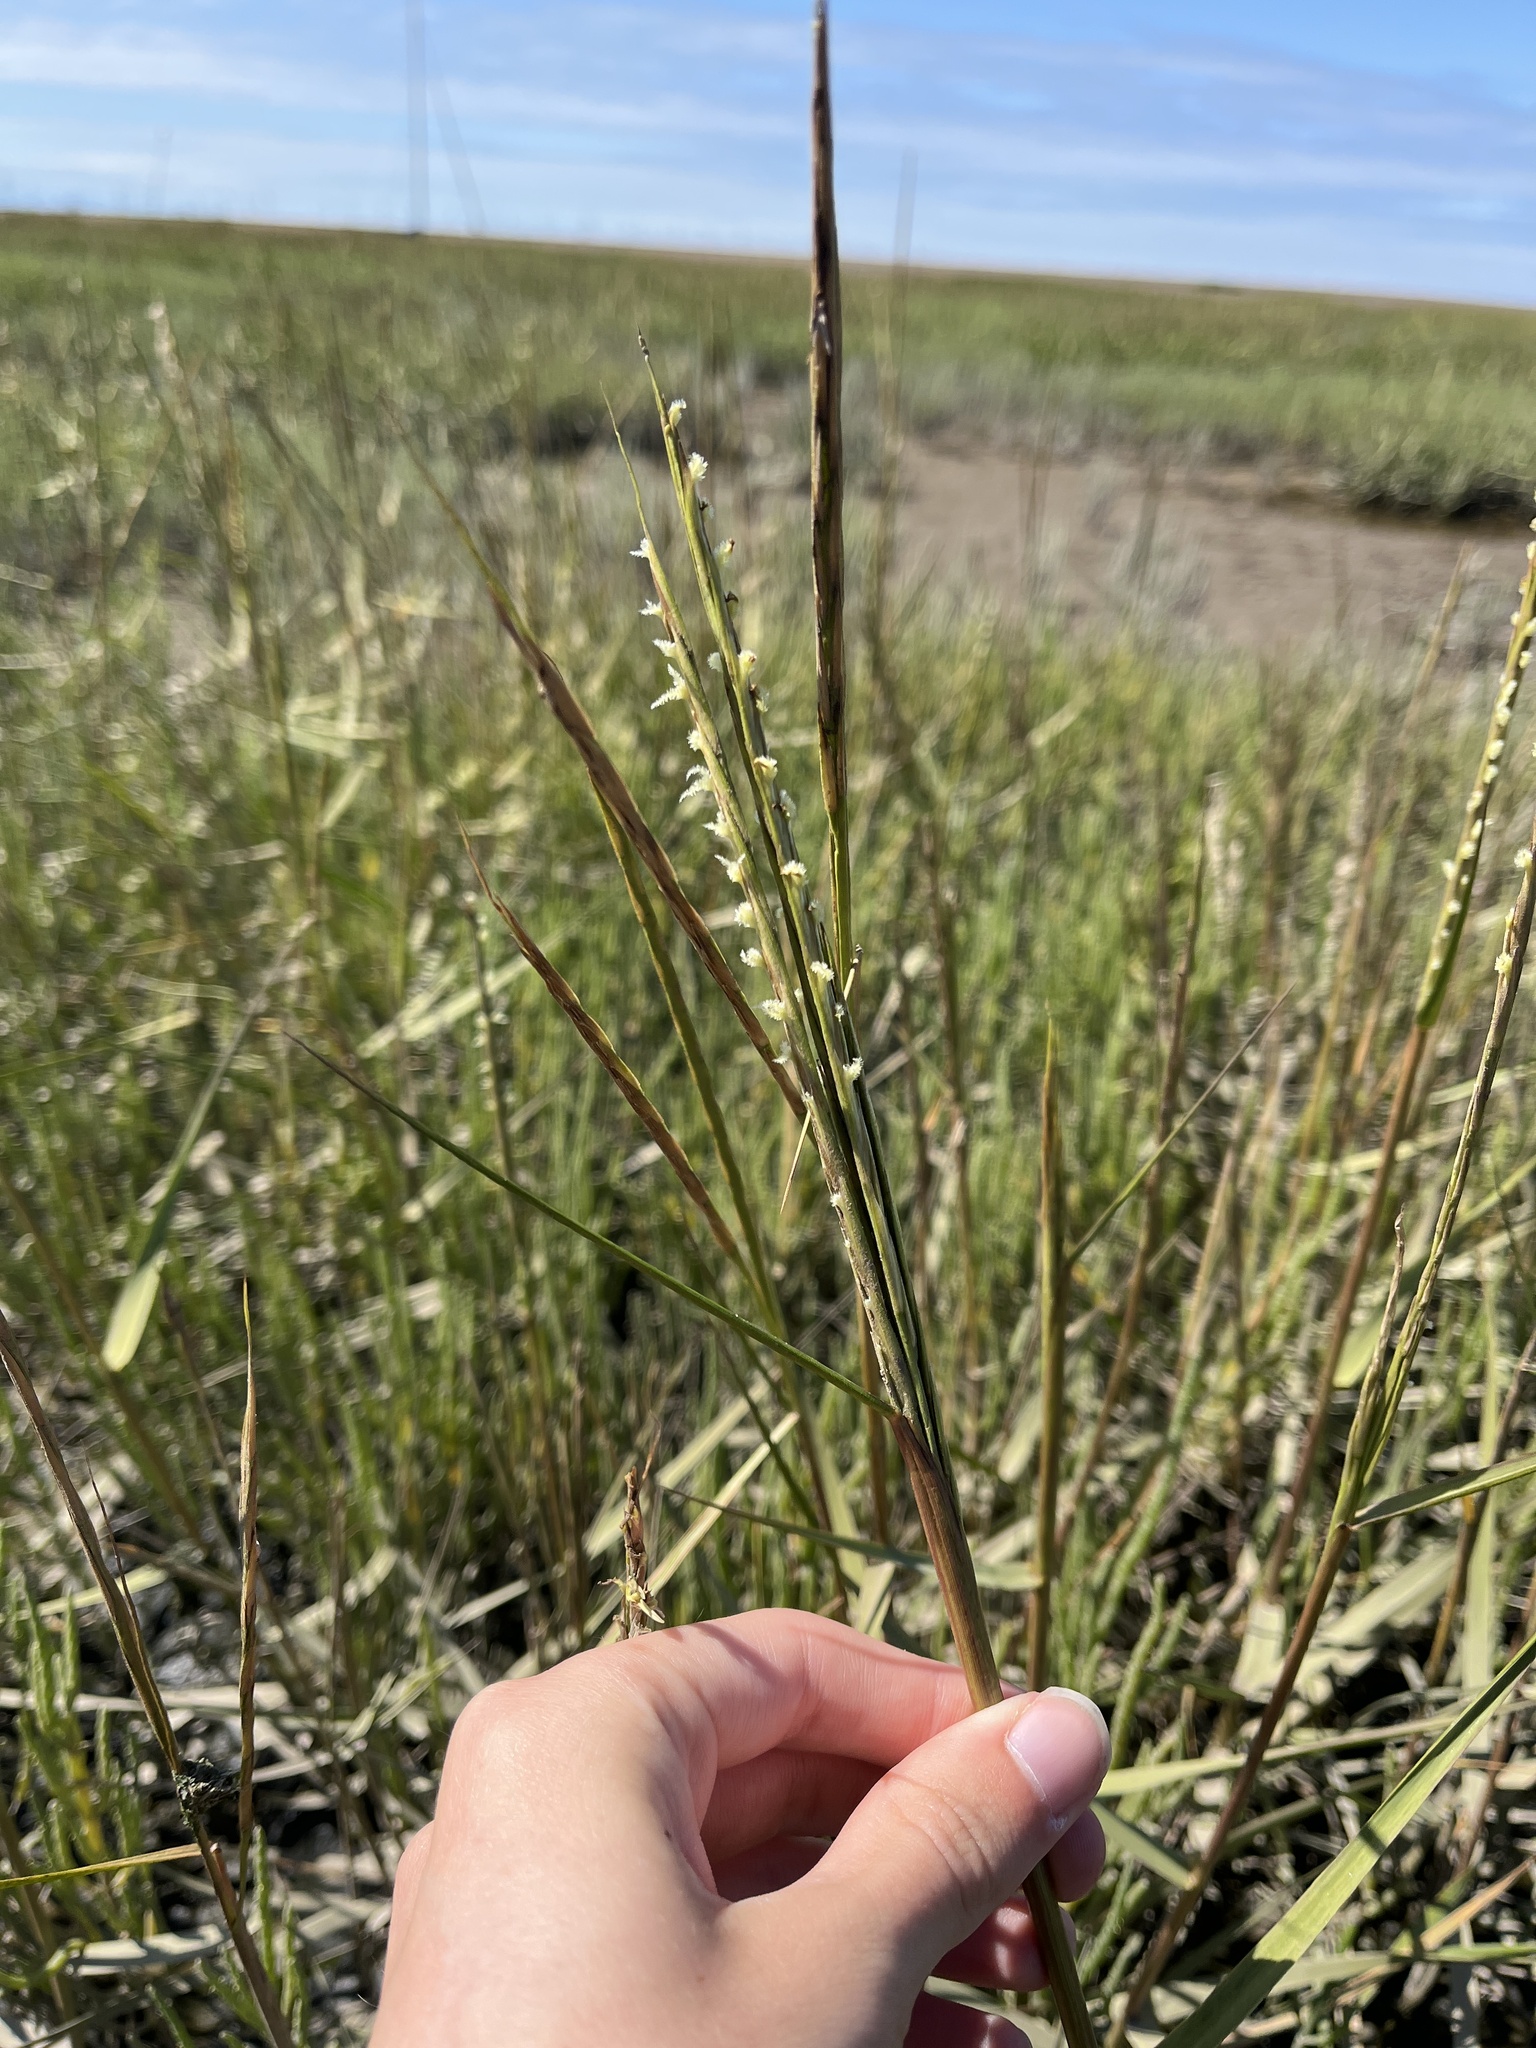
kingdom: Plantae
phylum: Tracheophyta
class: Liliopsida
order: Poales
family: Poaceae
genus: Sporobolus
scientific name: Sporobolus anglicus
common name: English cordgrass
